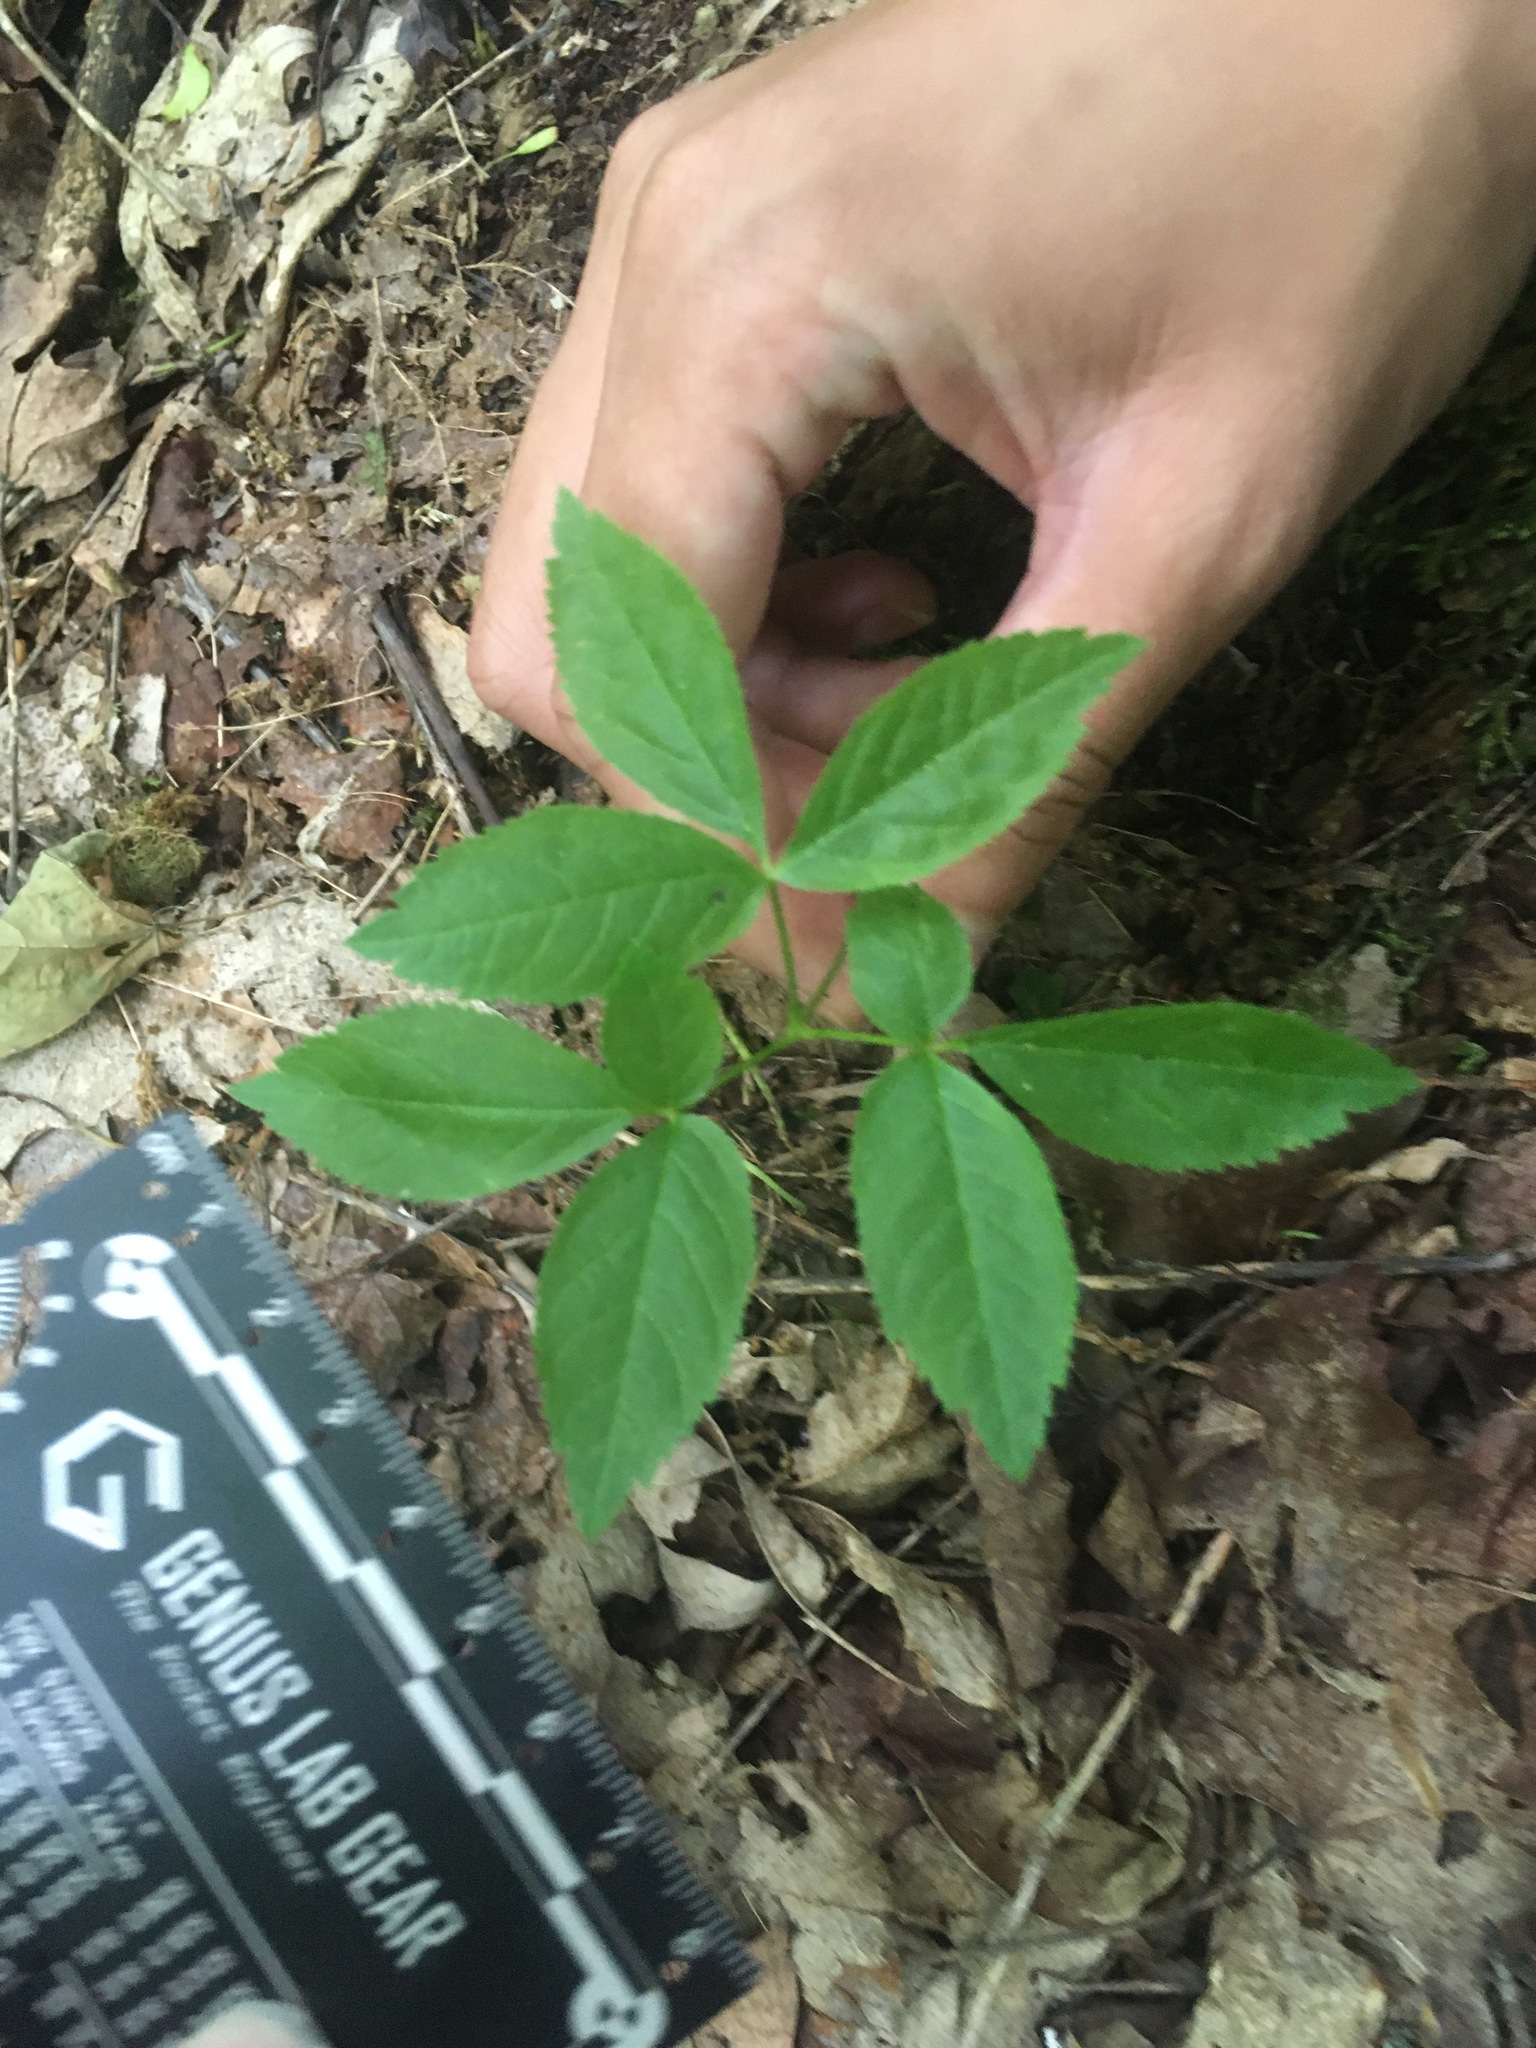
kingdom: Plantae
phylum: Tracheophyta
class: Magnoliopsida
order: Apiales
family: Araliaceae
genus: Panax
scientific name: Panax trifolius
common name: Dwarf ginseng
